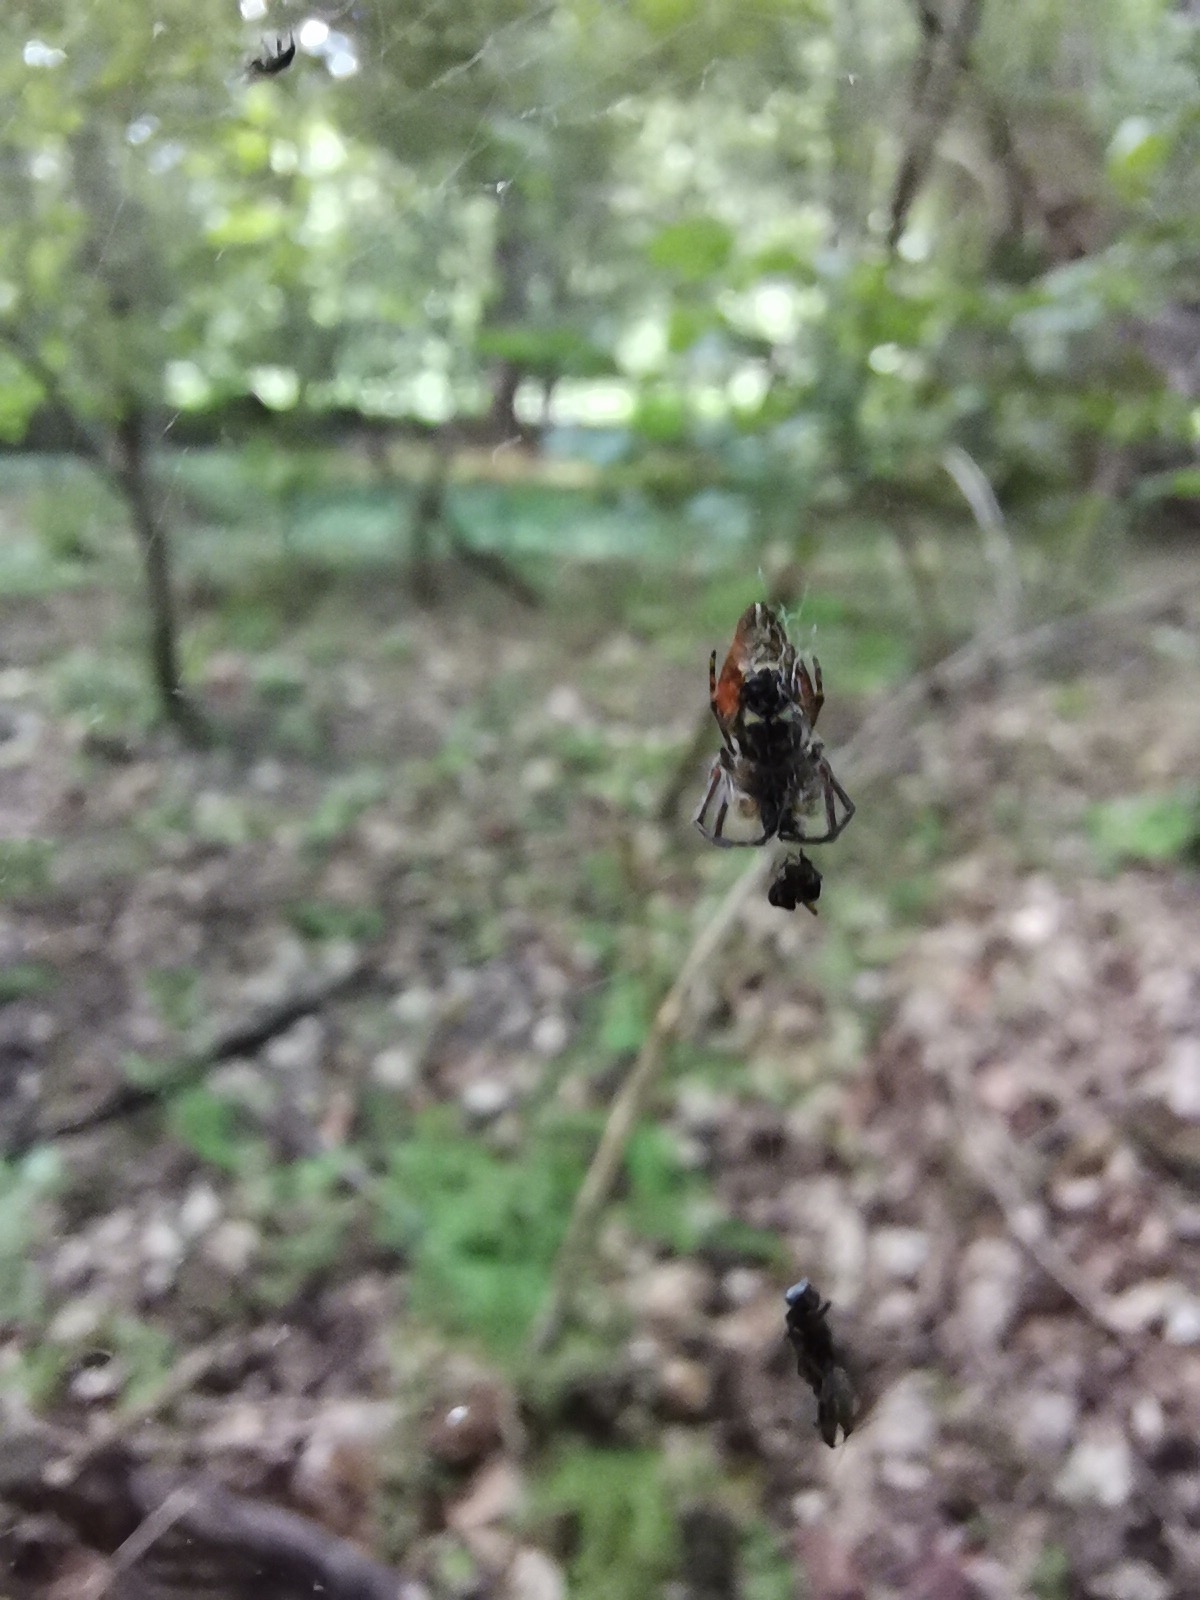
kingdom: Animalia
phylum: Arthropoda
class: Arachnida
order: Araneae
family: Araneidae
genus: Cyclosa
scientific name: Cyclosa conica
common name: Conical trashline orbweaver
